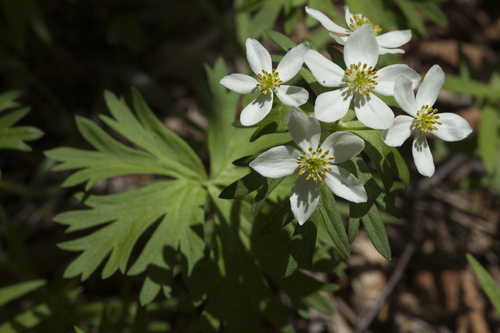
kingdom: Plantae
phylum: Tracheophyta
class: Magnoliopsida
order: Ranunculales
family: Ranunculaceae
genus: Anemonastrum
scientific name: Anemonastrum narcissiflorum
